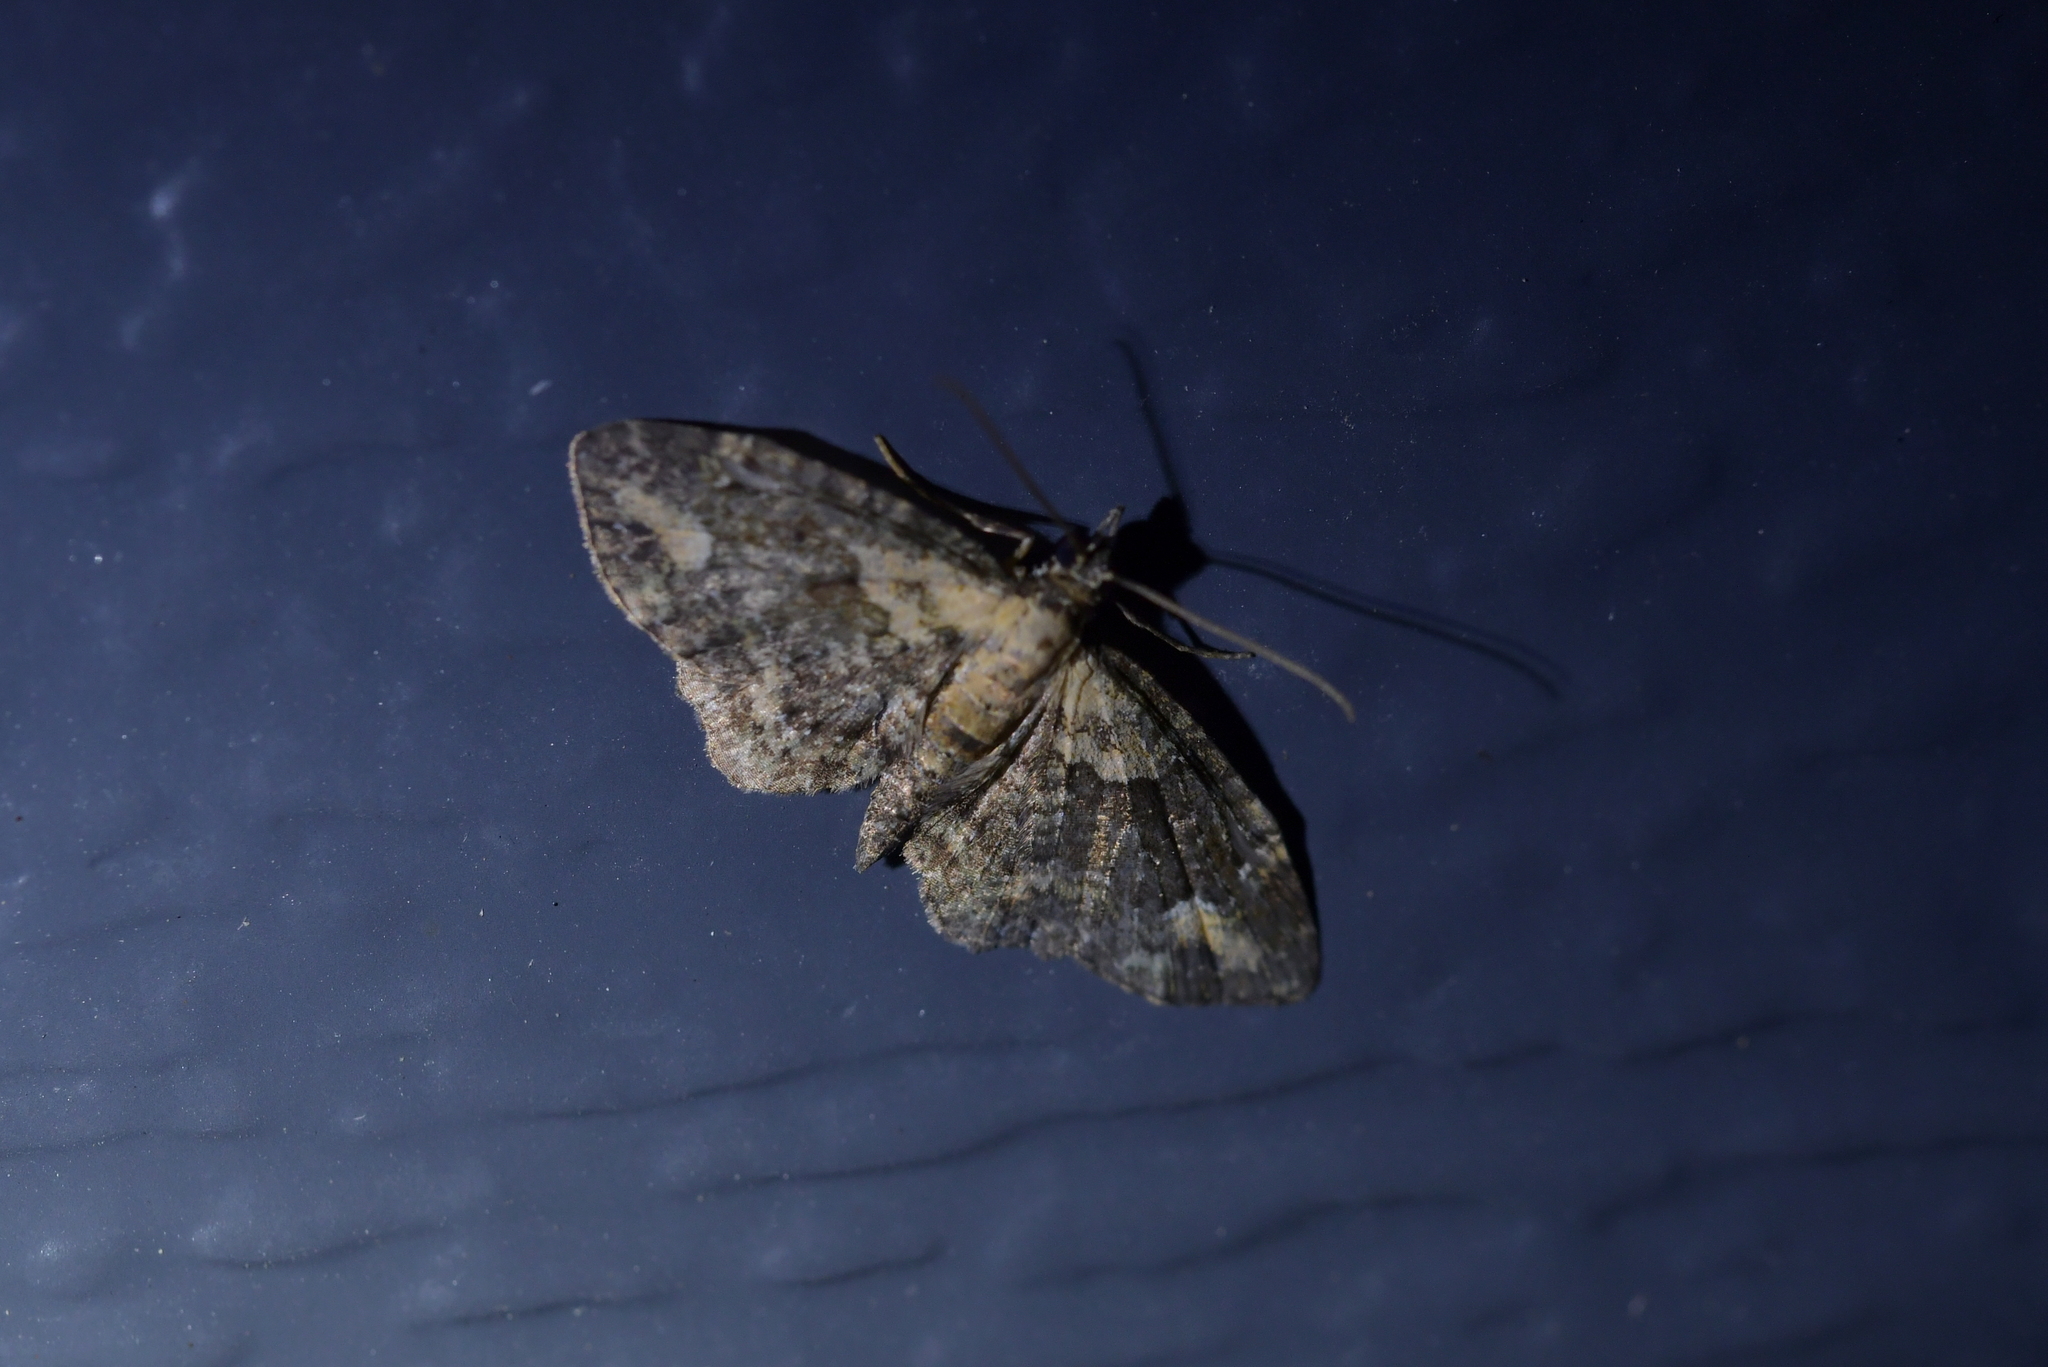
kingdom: Animalia
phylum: Arthropoda
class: Insecta
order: Lepidoptera
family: Geometridae
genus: Pasiphilodes
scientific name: Pasiphilodes testulata
